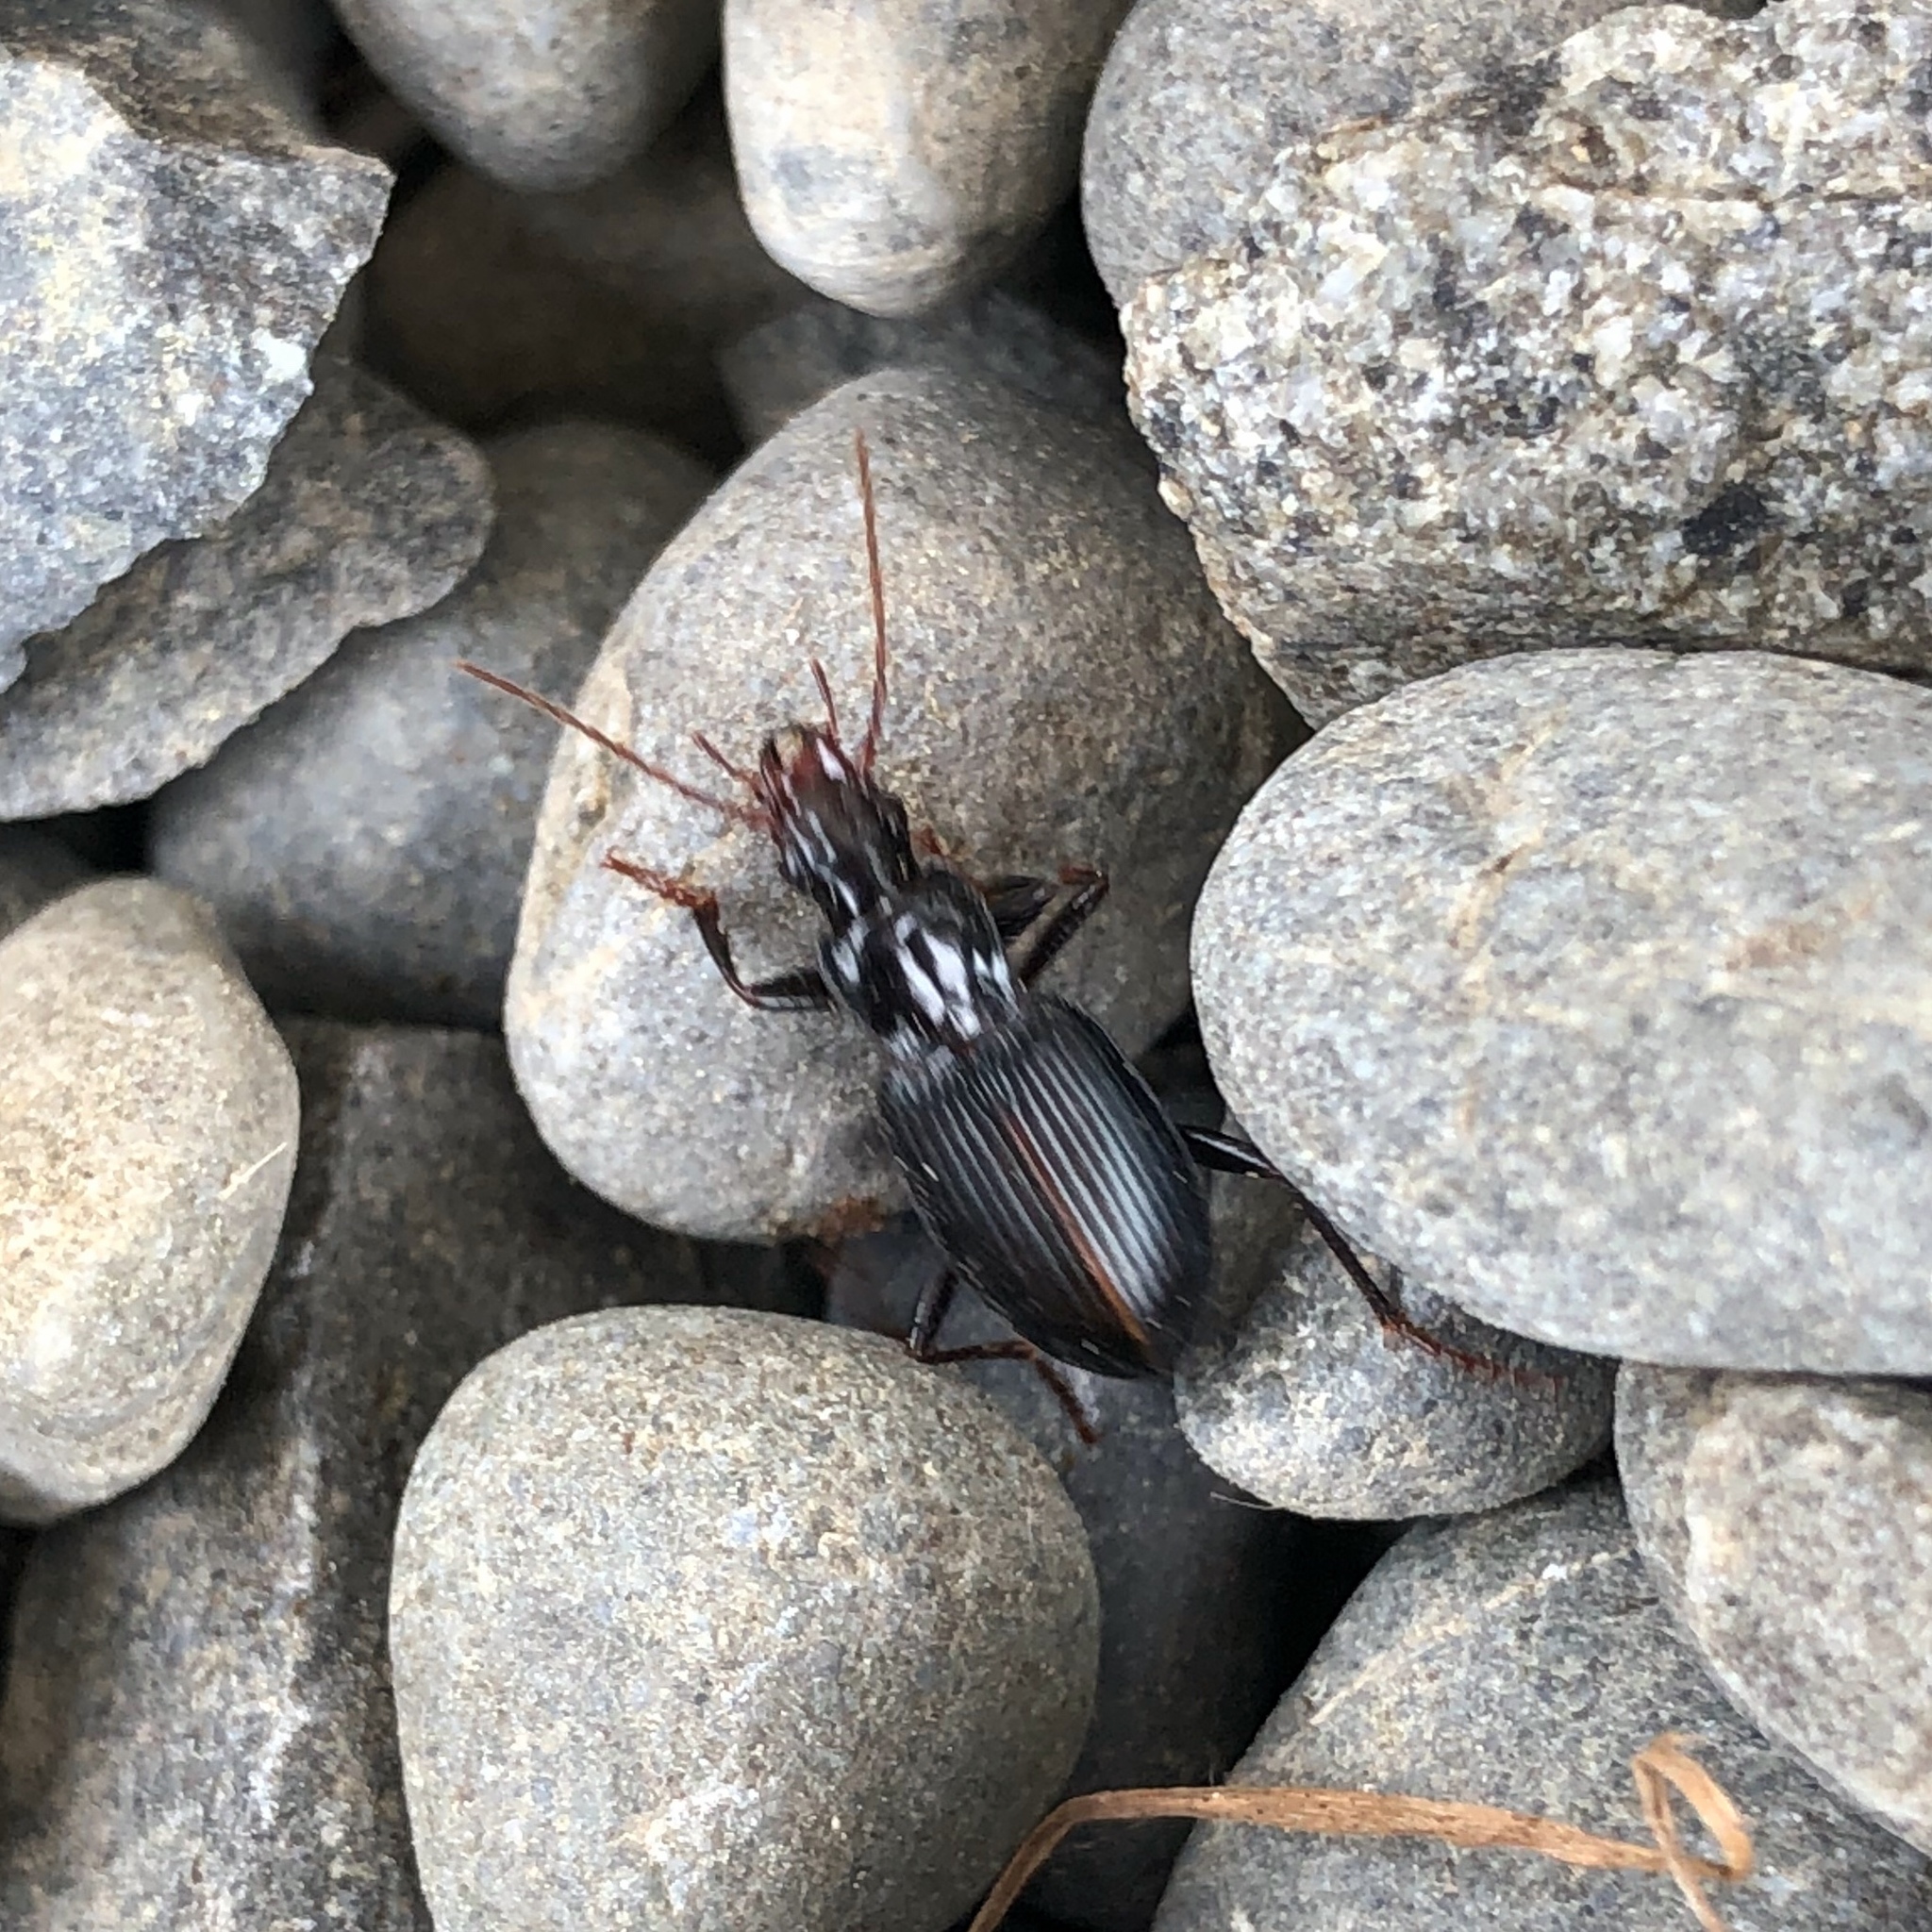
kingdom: Animalia
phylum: Arthropoda
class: Insecta
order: Coleoptera
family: Carabidae
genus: Laemostenus
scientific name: Laemostenus complanatus
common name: Cosmopolitan ground beetle
